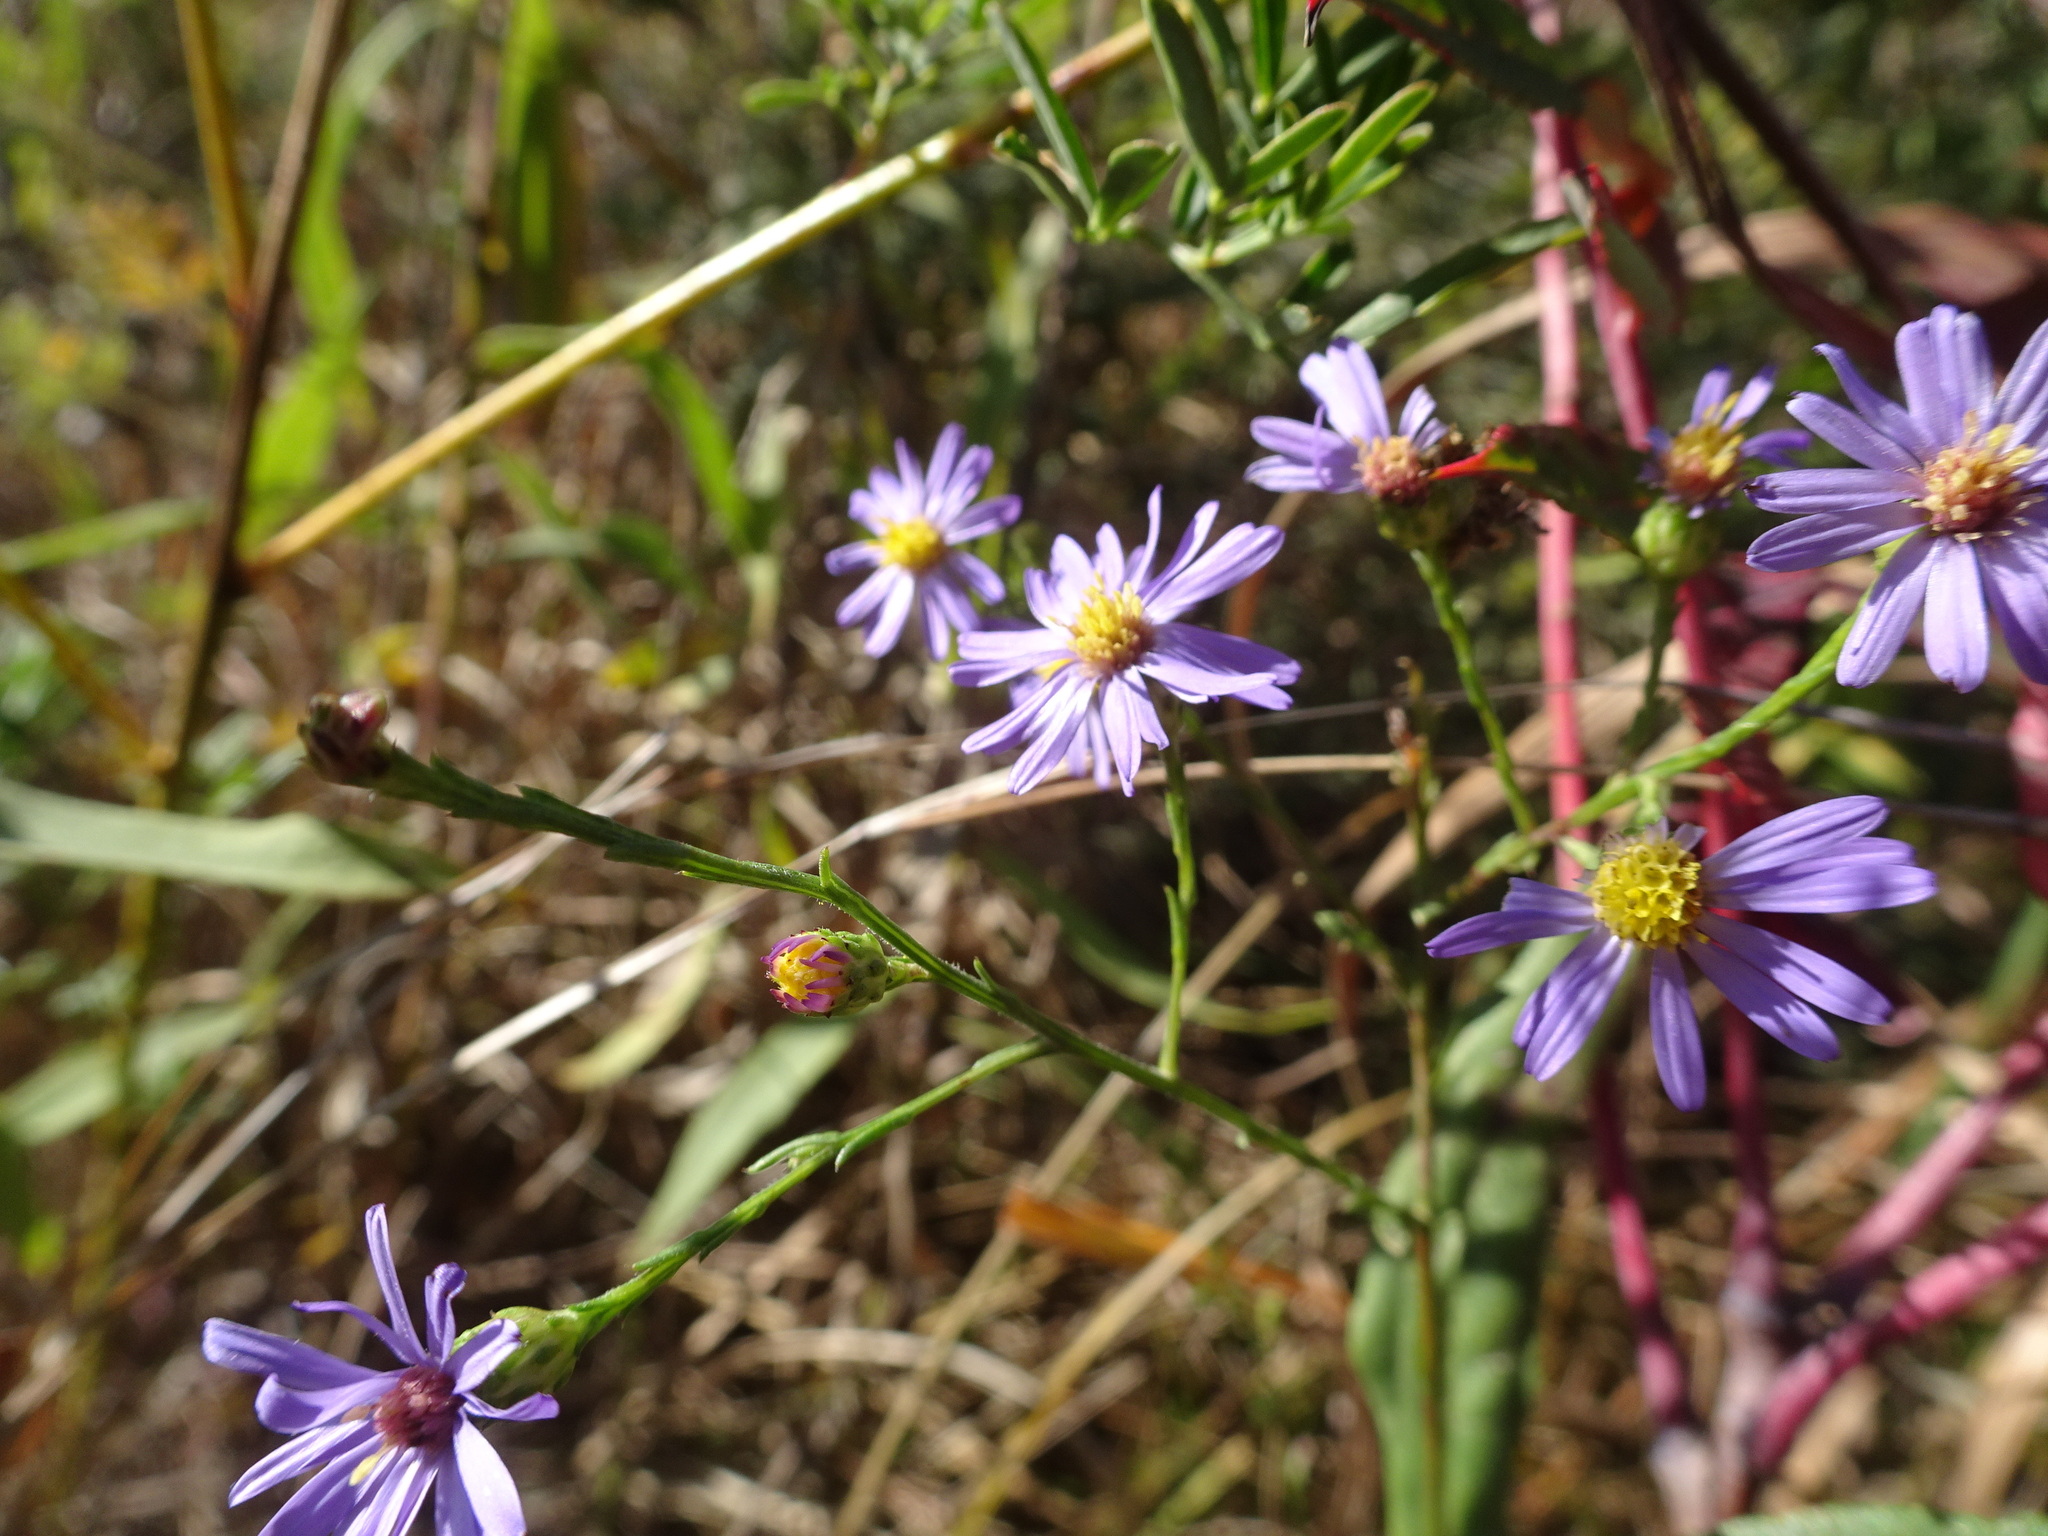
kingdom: Plantae
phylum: Tracheophyta
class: Magnoliopsida
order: Asterales
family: Asteraceae
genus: Symphyotrichum
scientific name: Symphyotrichum oolentangiense
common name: Azure aster
